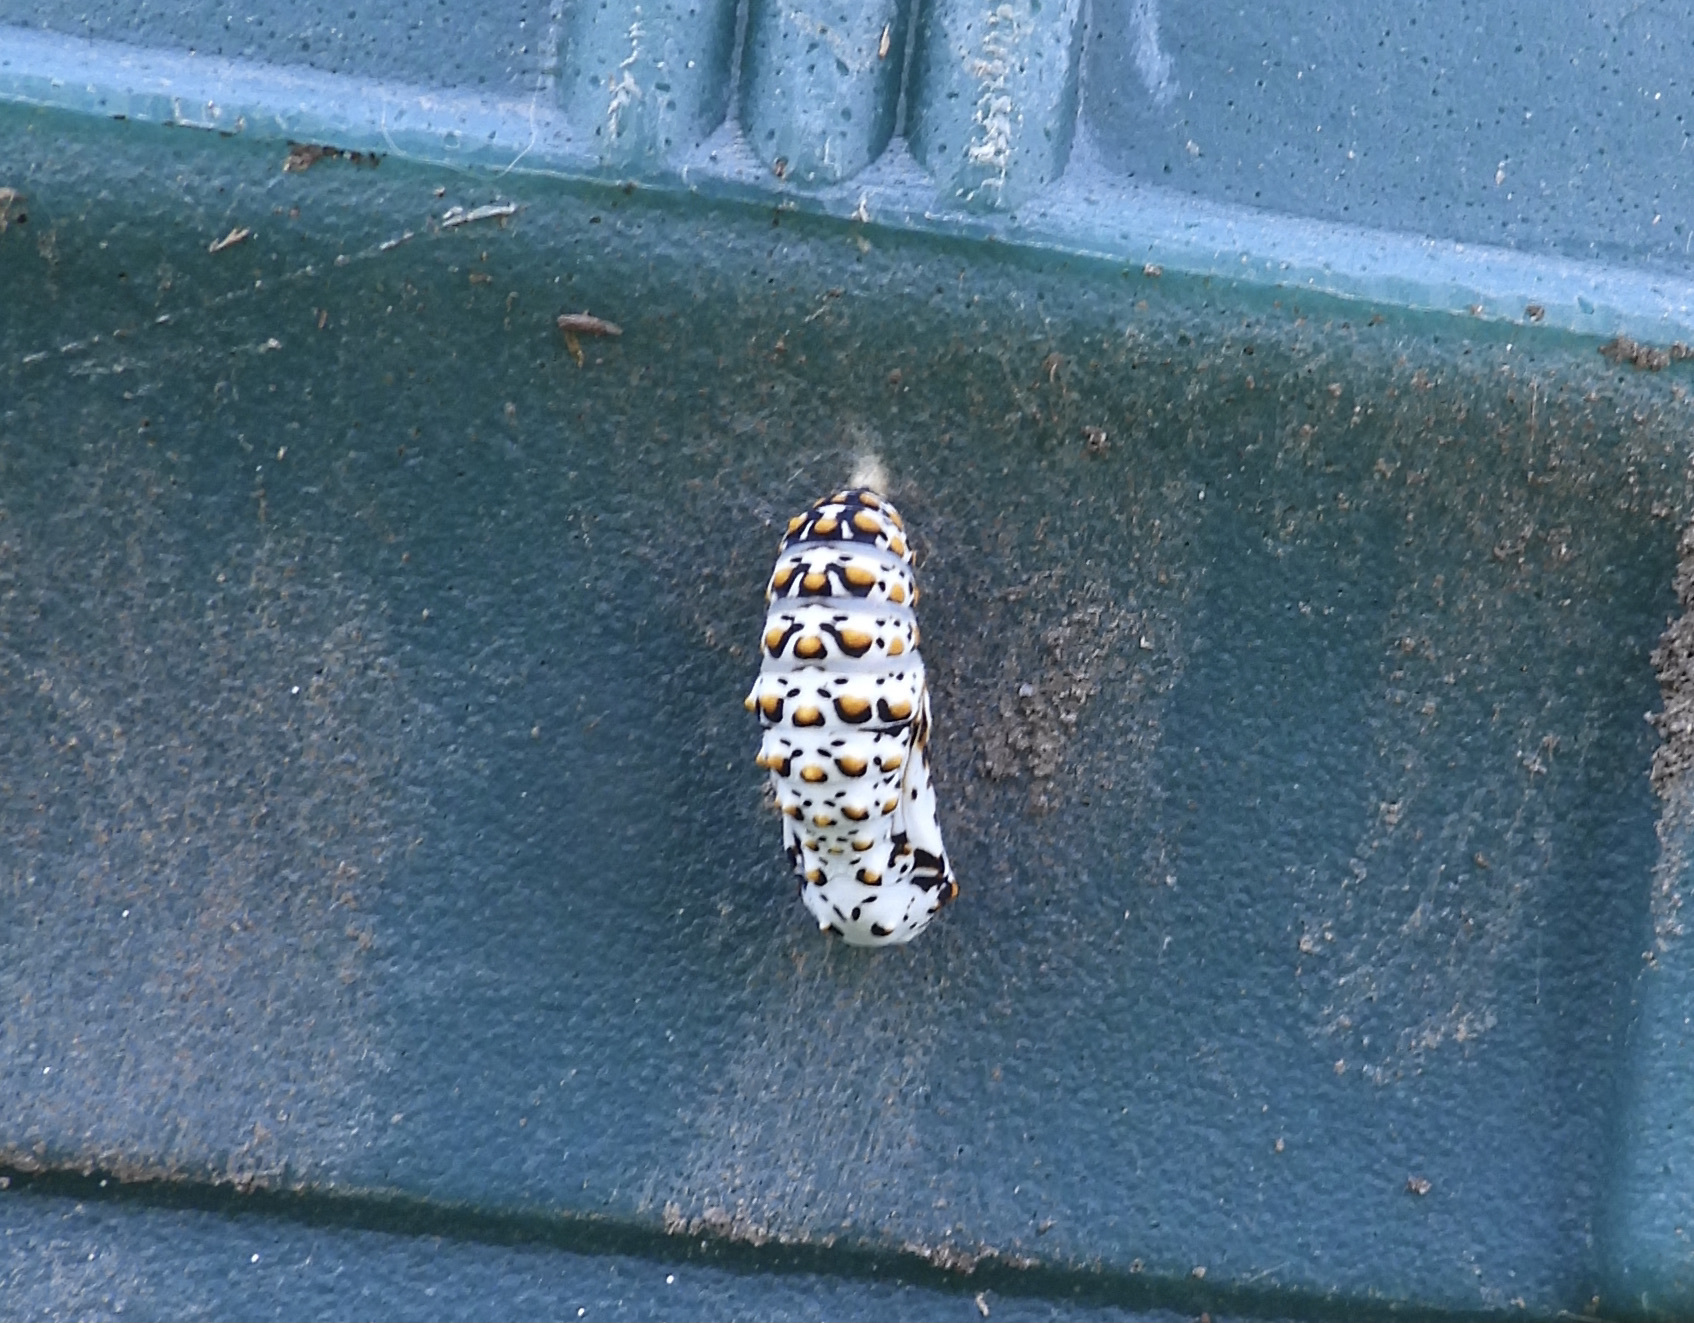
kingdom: Animalia
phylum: Arthropoda
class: Insecta
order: Lepidoptera
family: Nymphalidae
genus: Euphydryas
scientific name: Euphydryas phaeton
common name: Baltimore checkerspot
